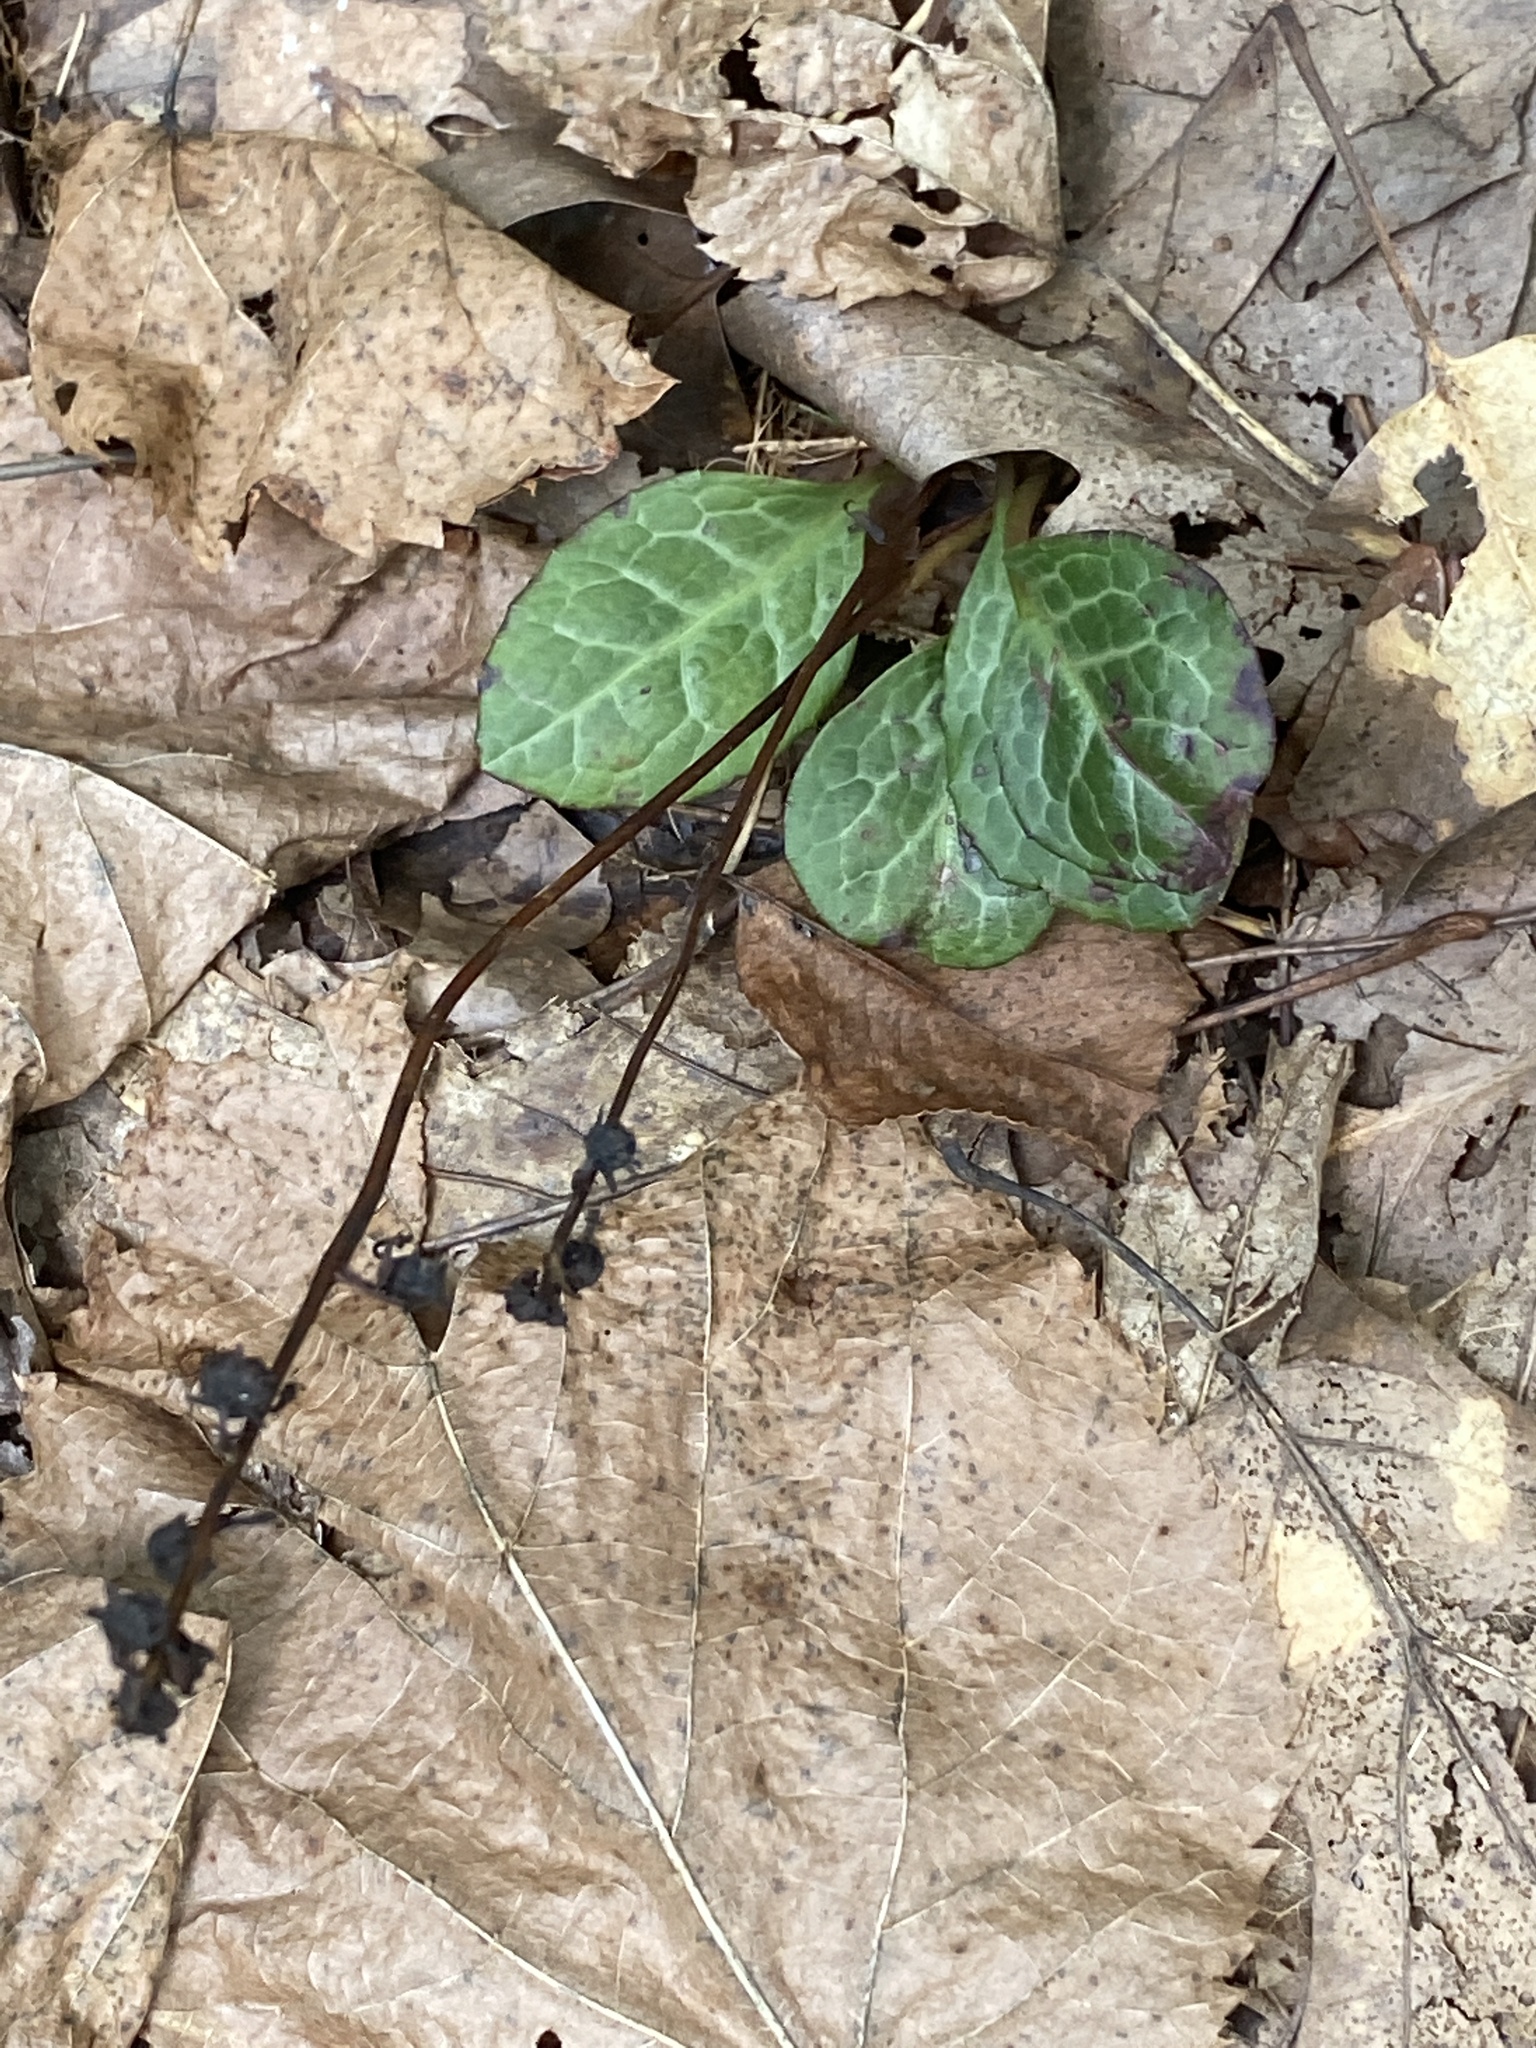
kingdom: Plantae
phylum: Tracheophyta
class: Magnoliopsida
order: Ericales
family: Ericaceae
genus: Pyrola
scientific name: Pyrola americana
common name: American wintergreen
